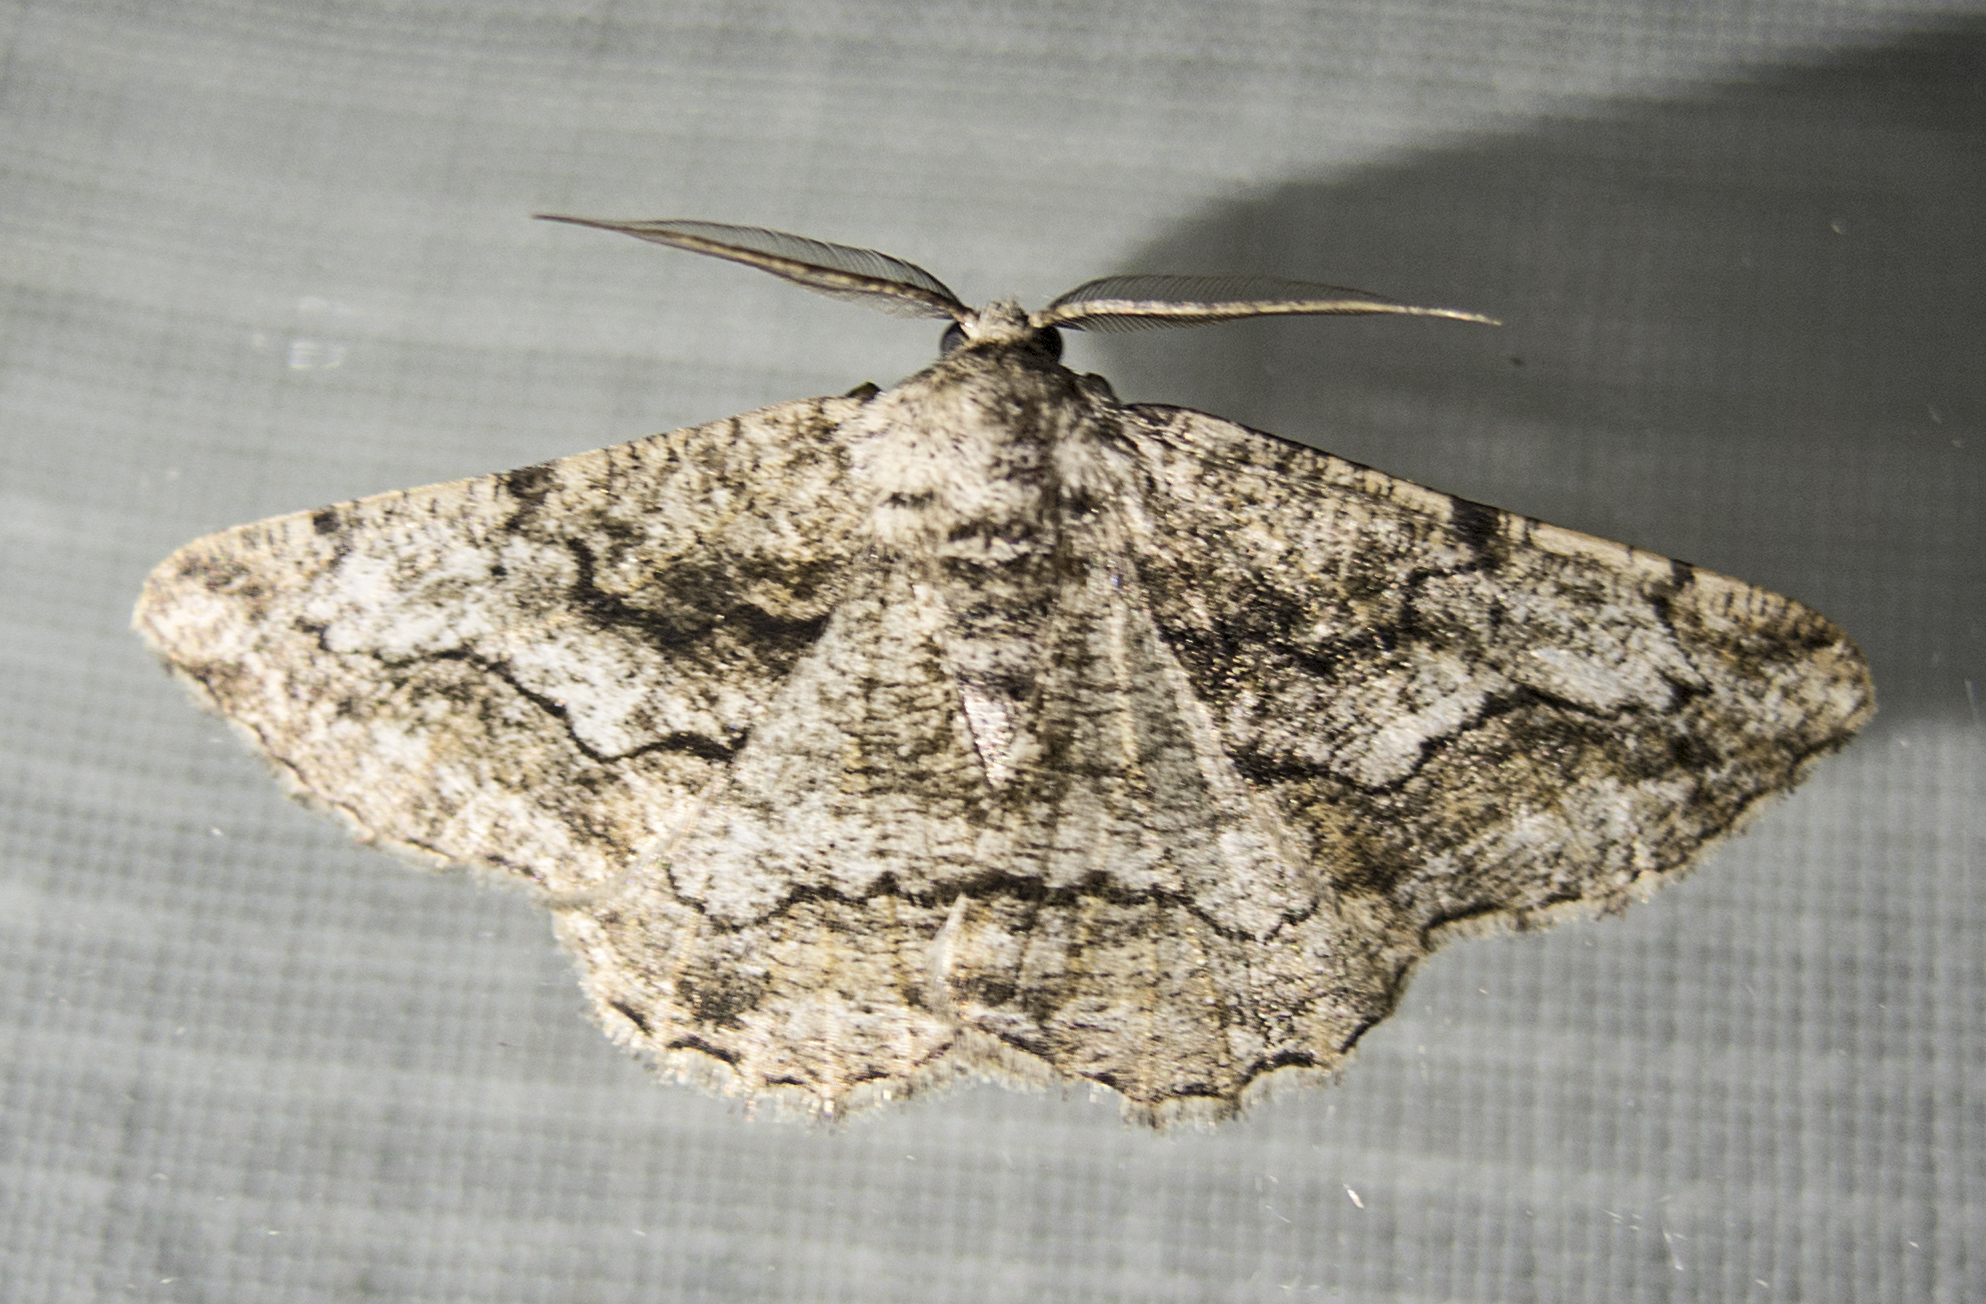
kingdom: Animalia
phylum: Arthropoda
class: Insecta
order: Lepidoptera
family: Geometridae
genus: Synopsia
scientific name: Synopsia sociaria
